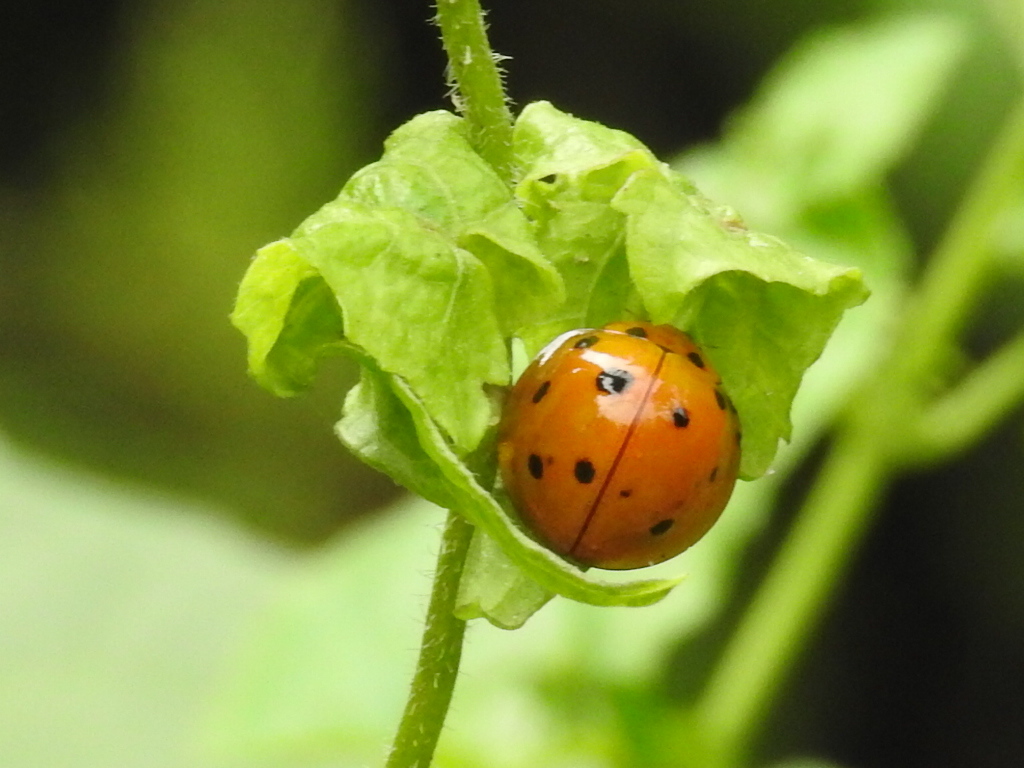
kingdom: Animalia
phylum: Arthropoda
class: Insecta
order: Coleoptera
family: Coccinellidae
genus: Megalocaria
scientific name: Megalocaria dilatata
